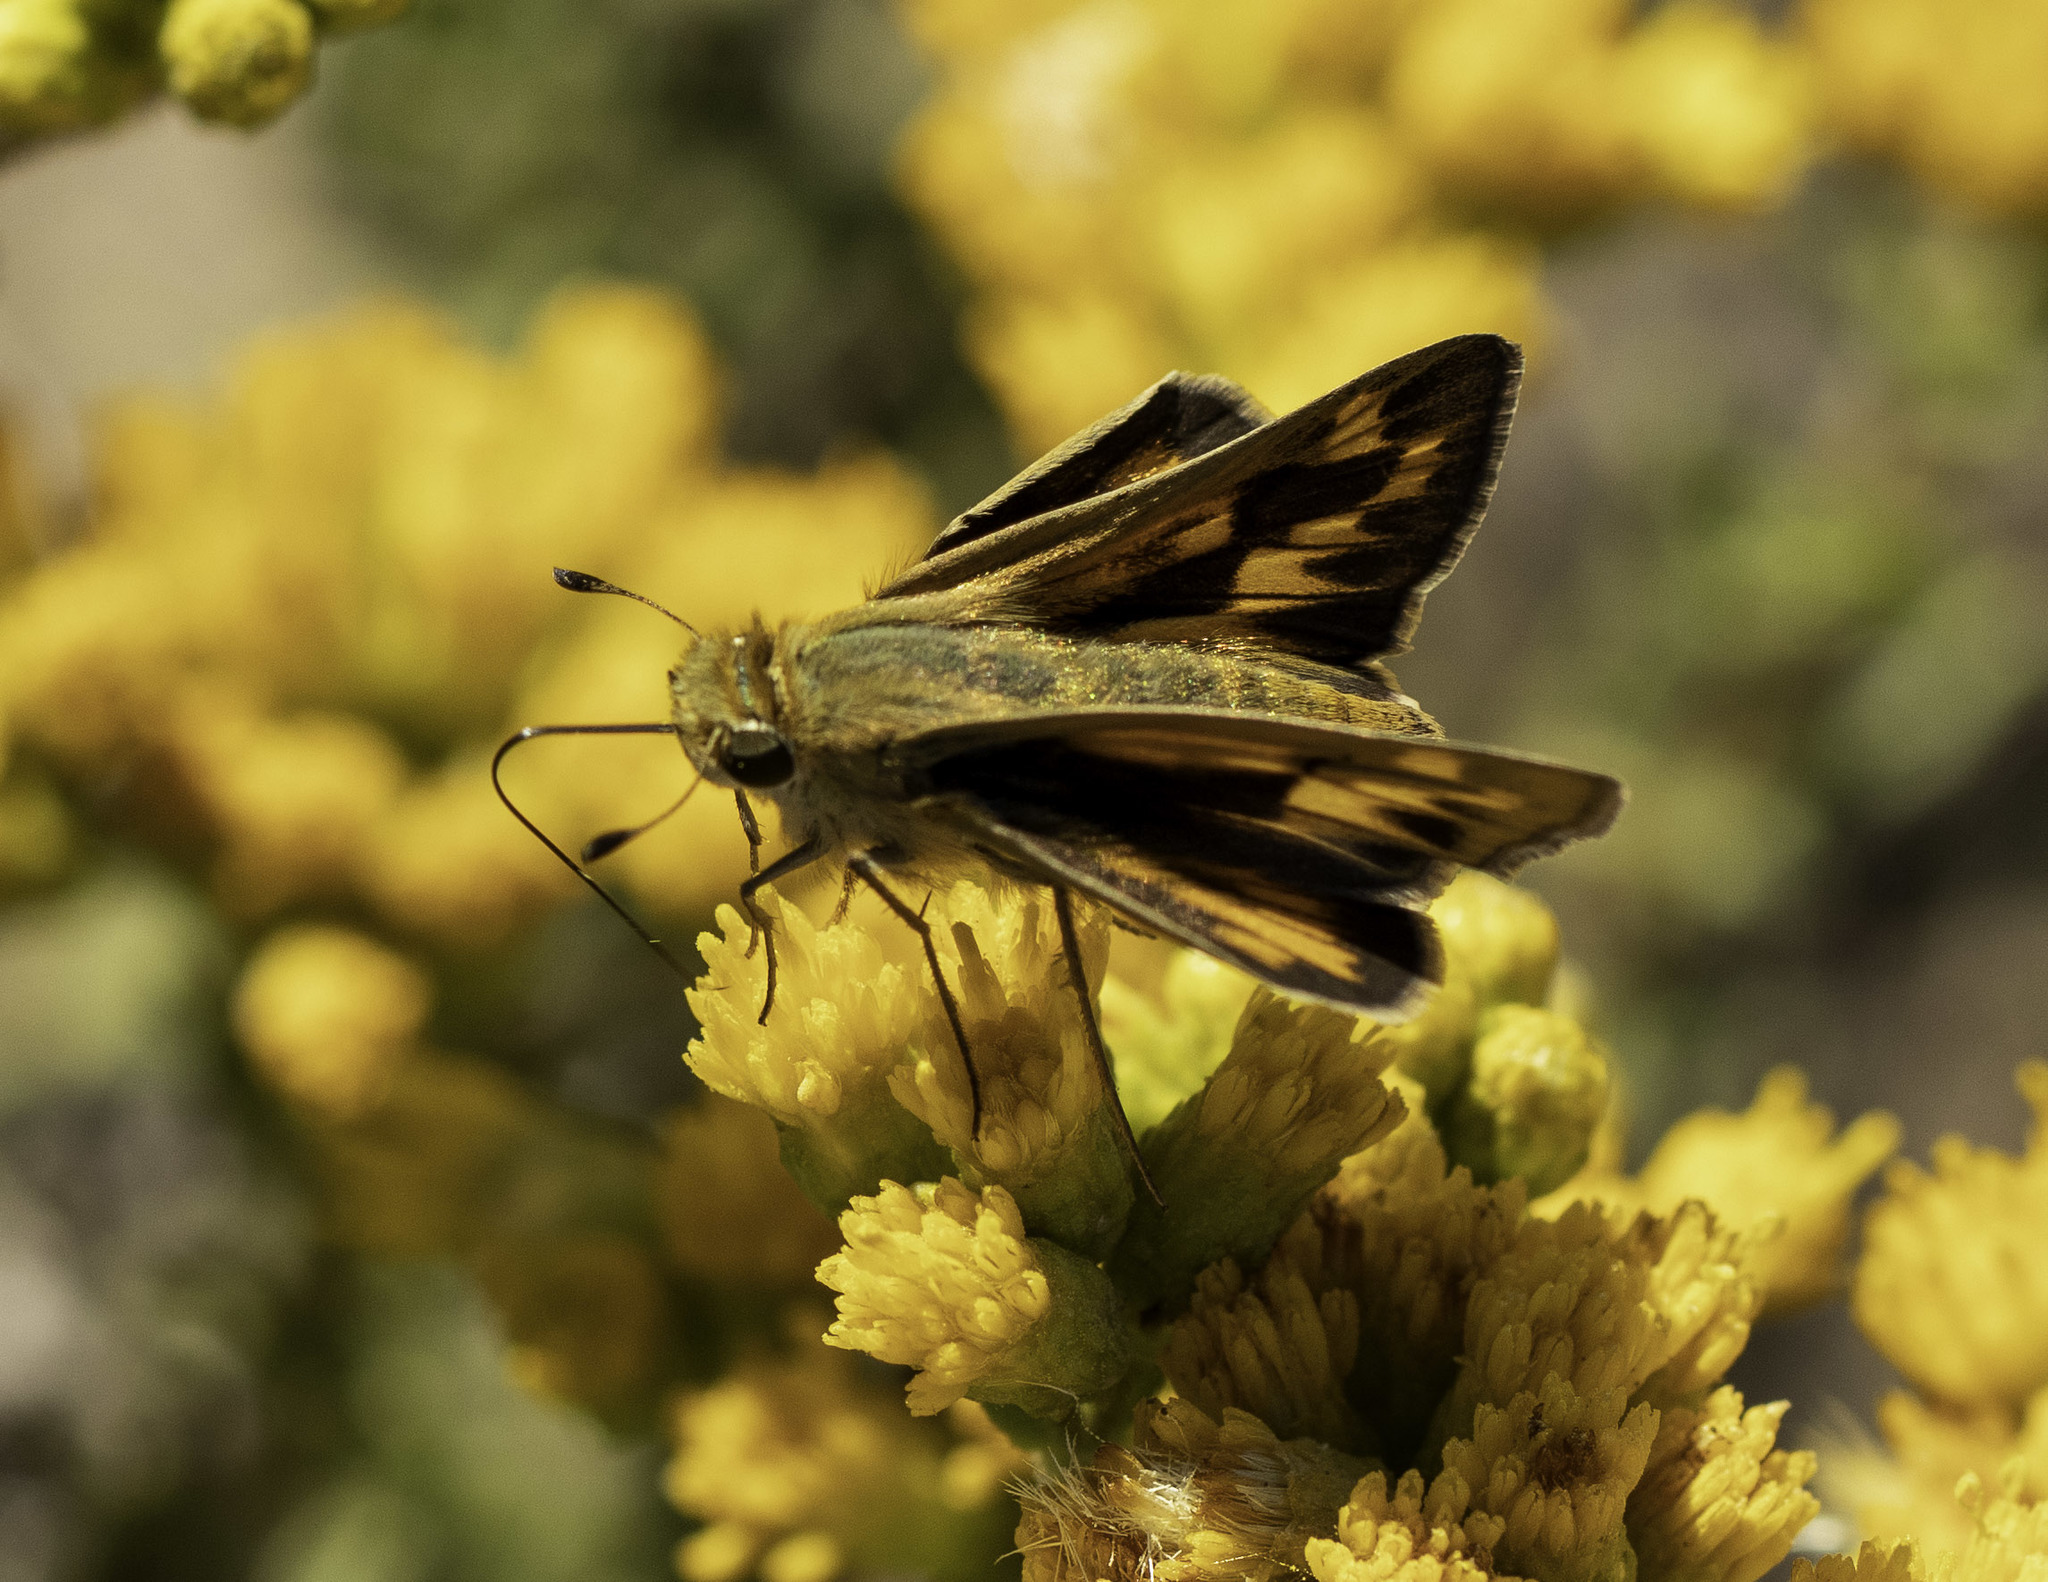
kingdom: Animalia
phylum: Arthropoda
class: Insecta
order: Lepidoptera
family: Hesperiidae
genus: Hylephila
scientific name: Hylephila phyleus
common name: Fiery skipper
